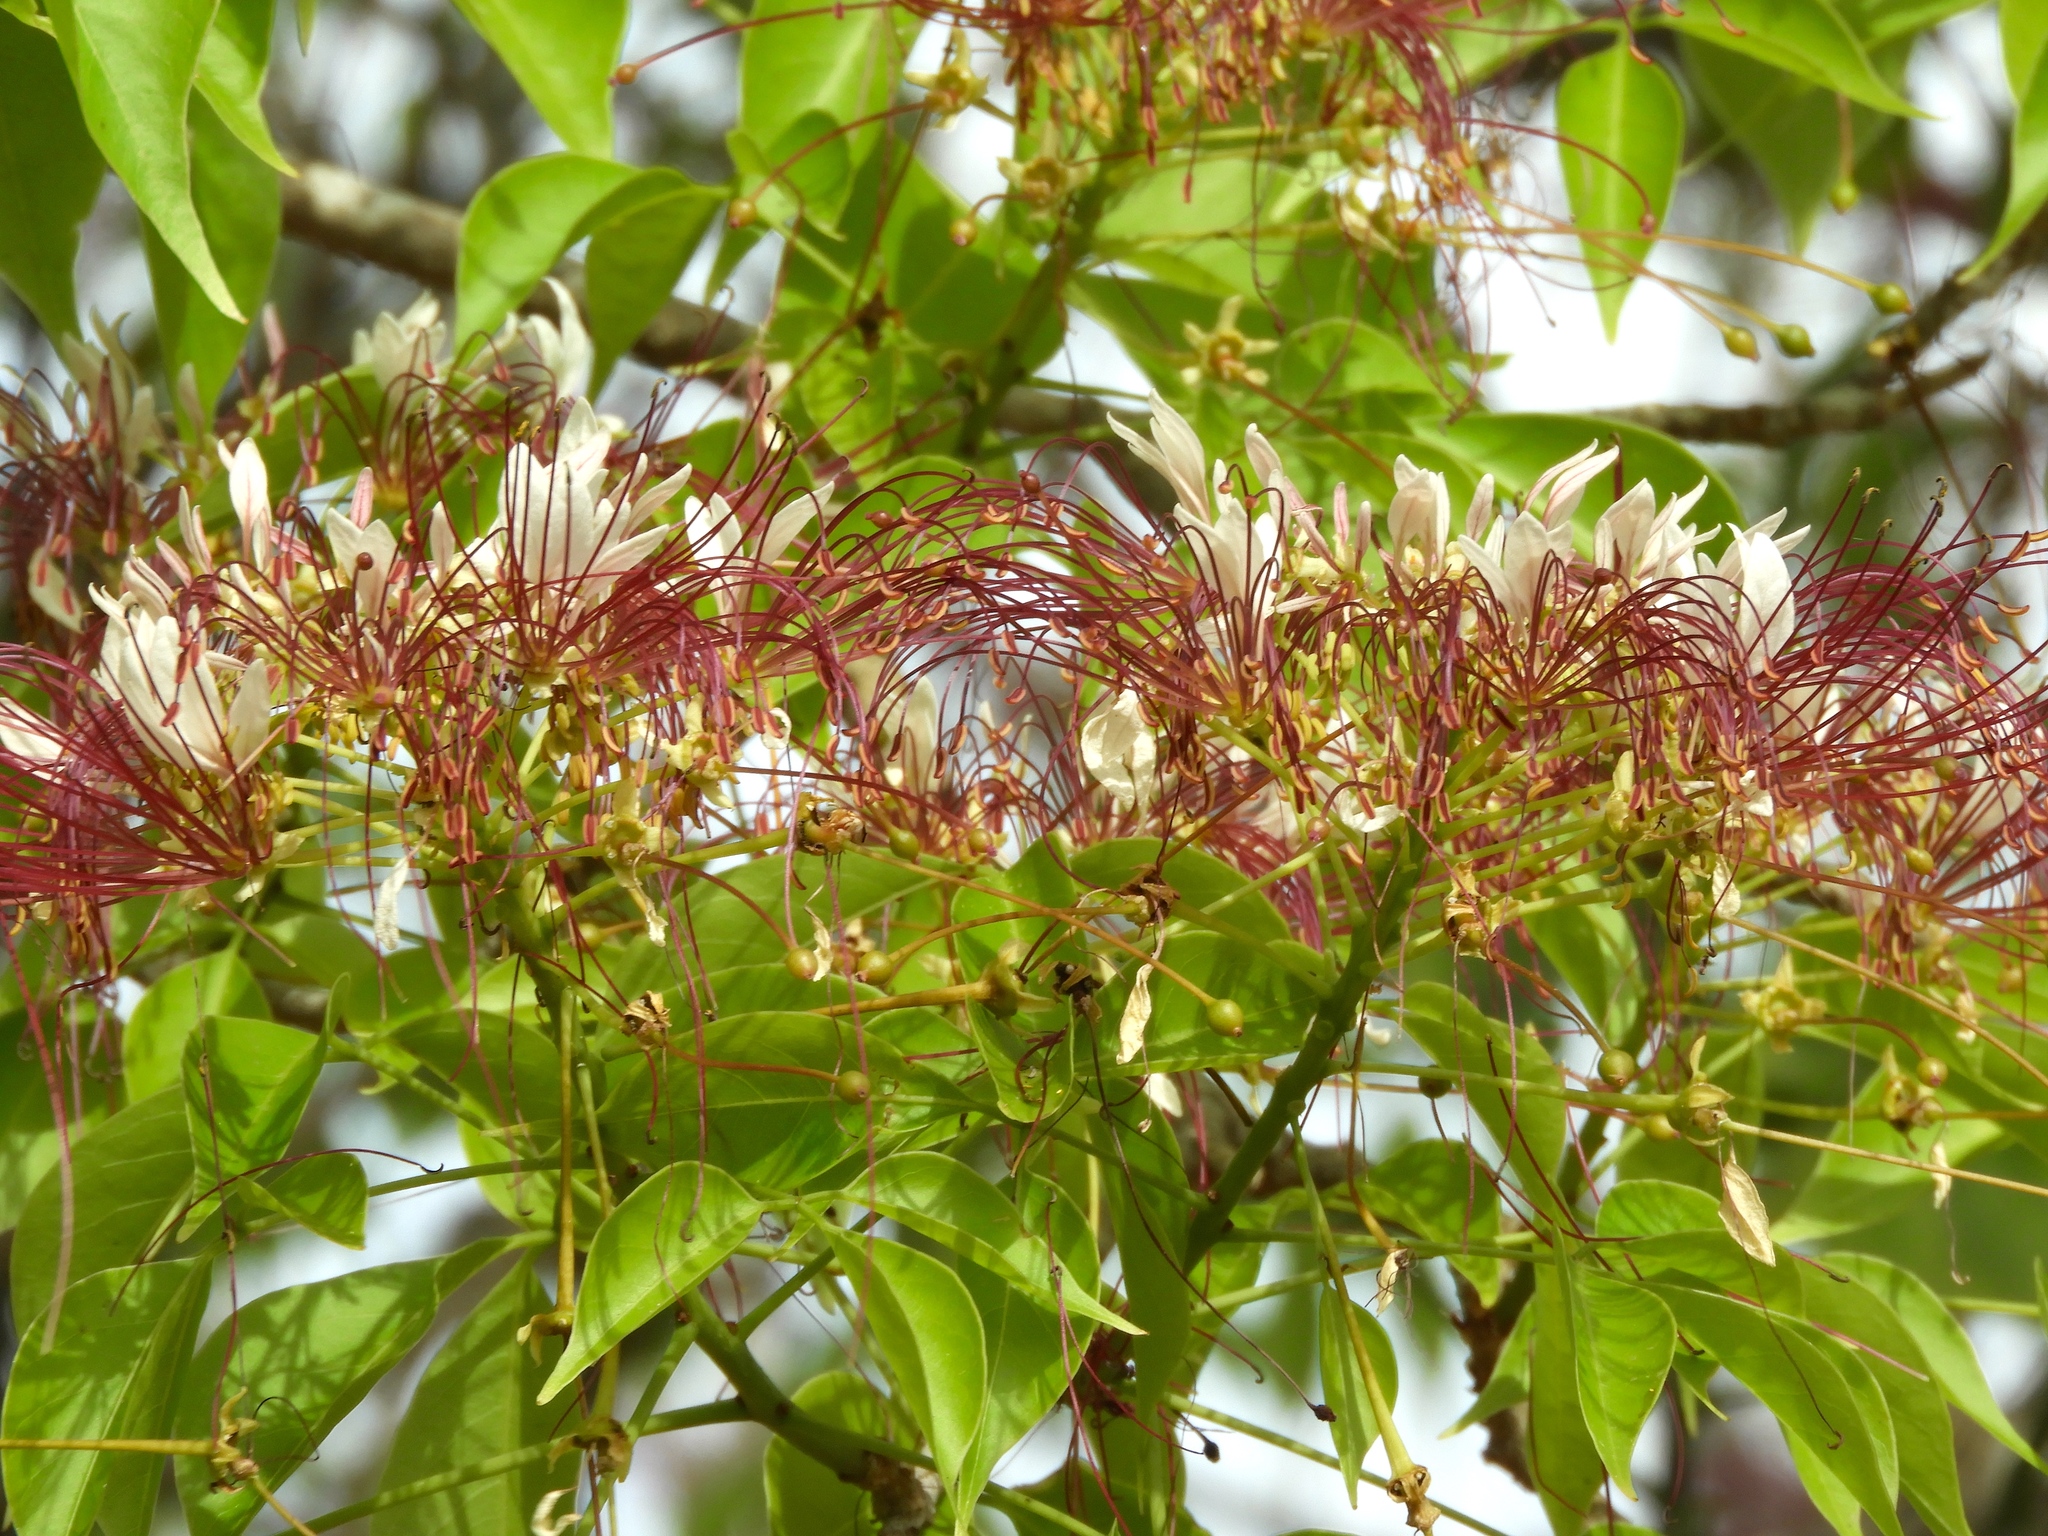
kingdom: Plantae
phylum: Tracheophyta
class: Magnoliopsida
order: Brassicales
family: Capparaceae
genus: Crateva
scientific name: Crateva tapia
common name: Garlic-pear
